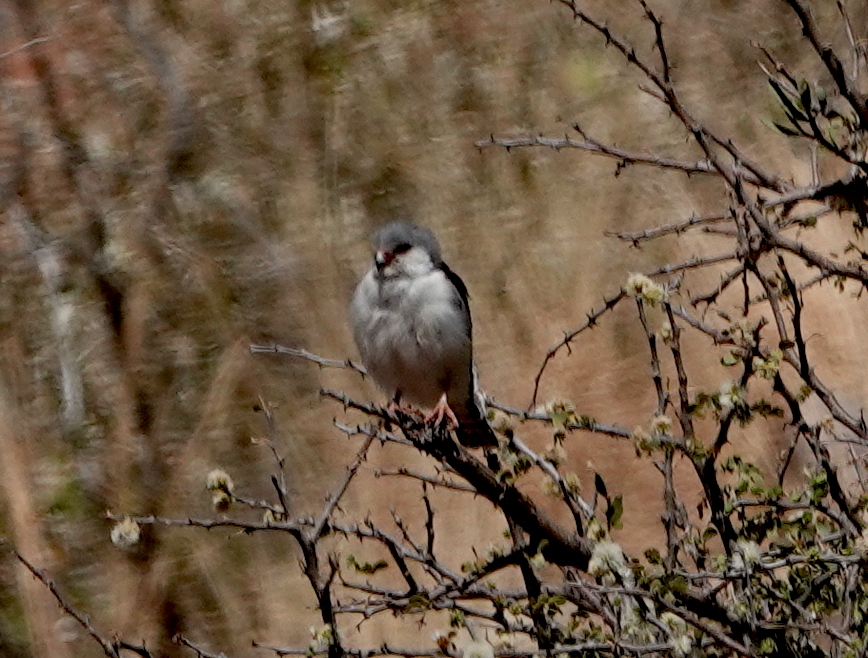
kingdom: Animalia
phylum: Chordata
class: Aves
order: Falconiformes
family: Falconidae
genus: Polihierax
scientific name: Polihierax semitorquatus
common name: Pygmy falcon
